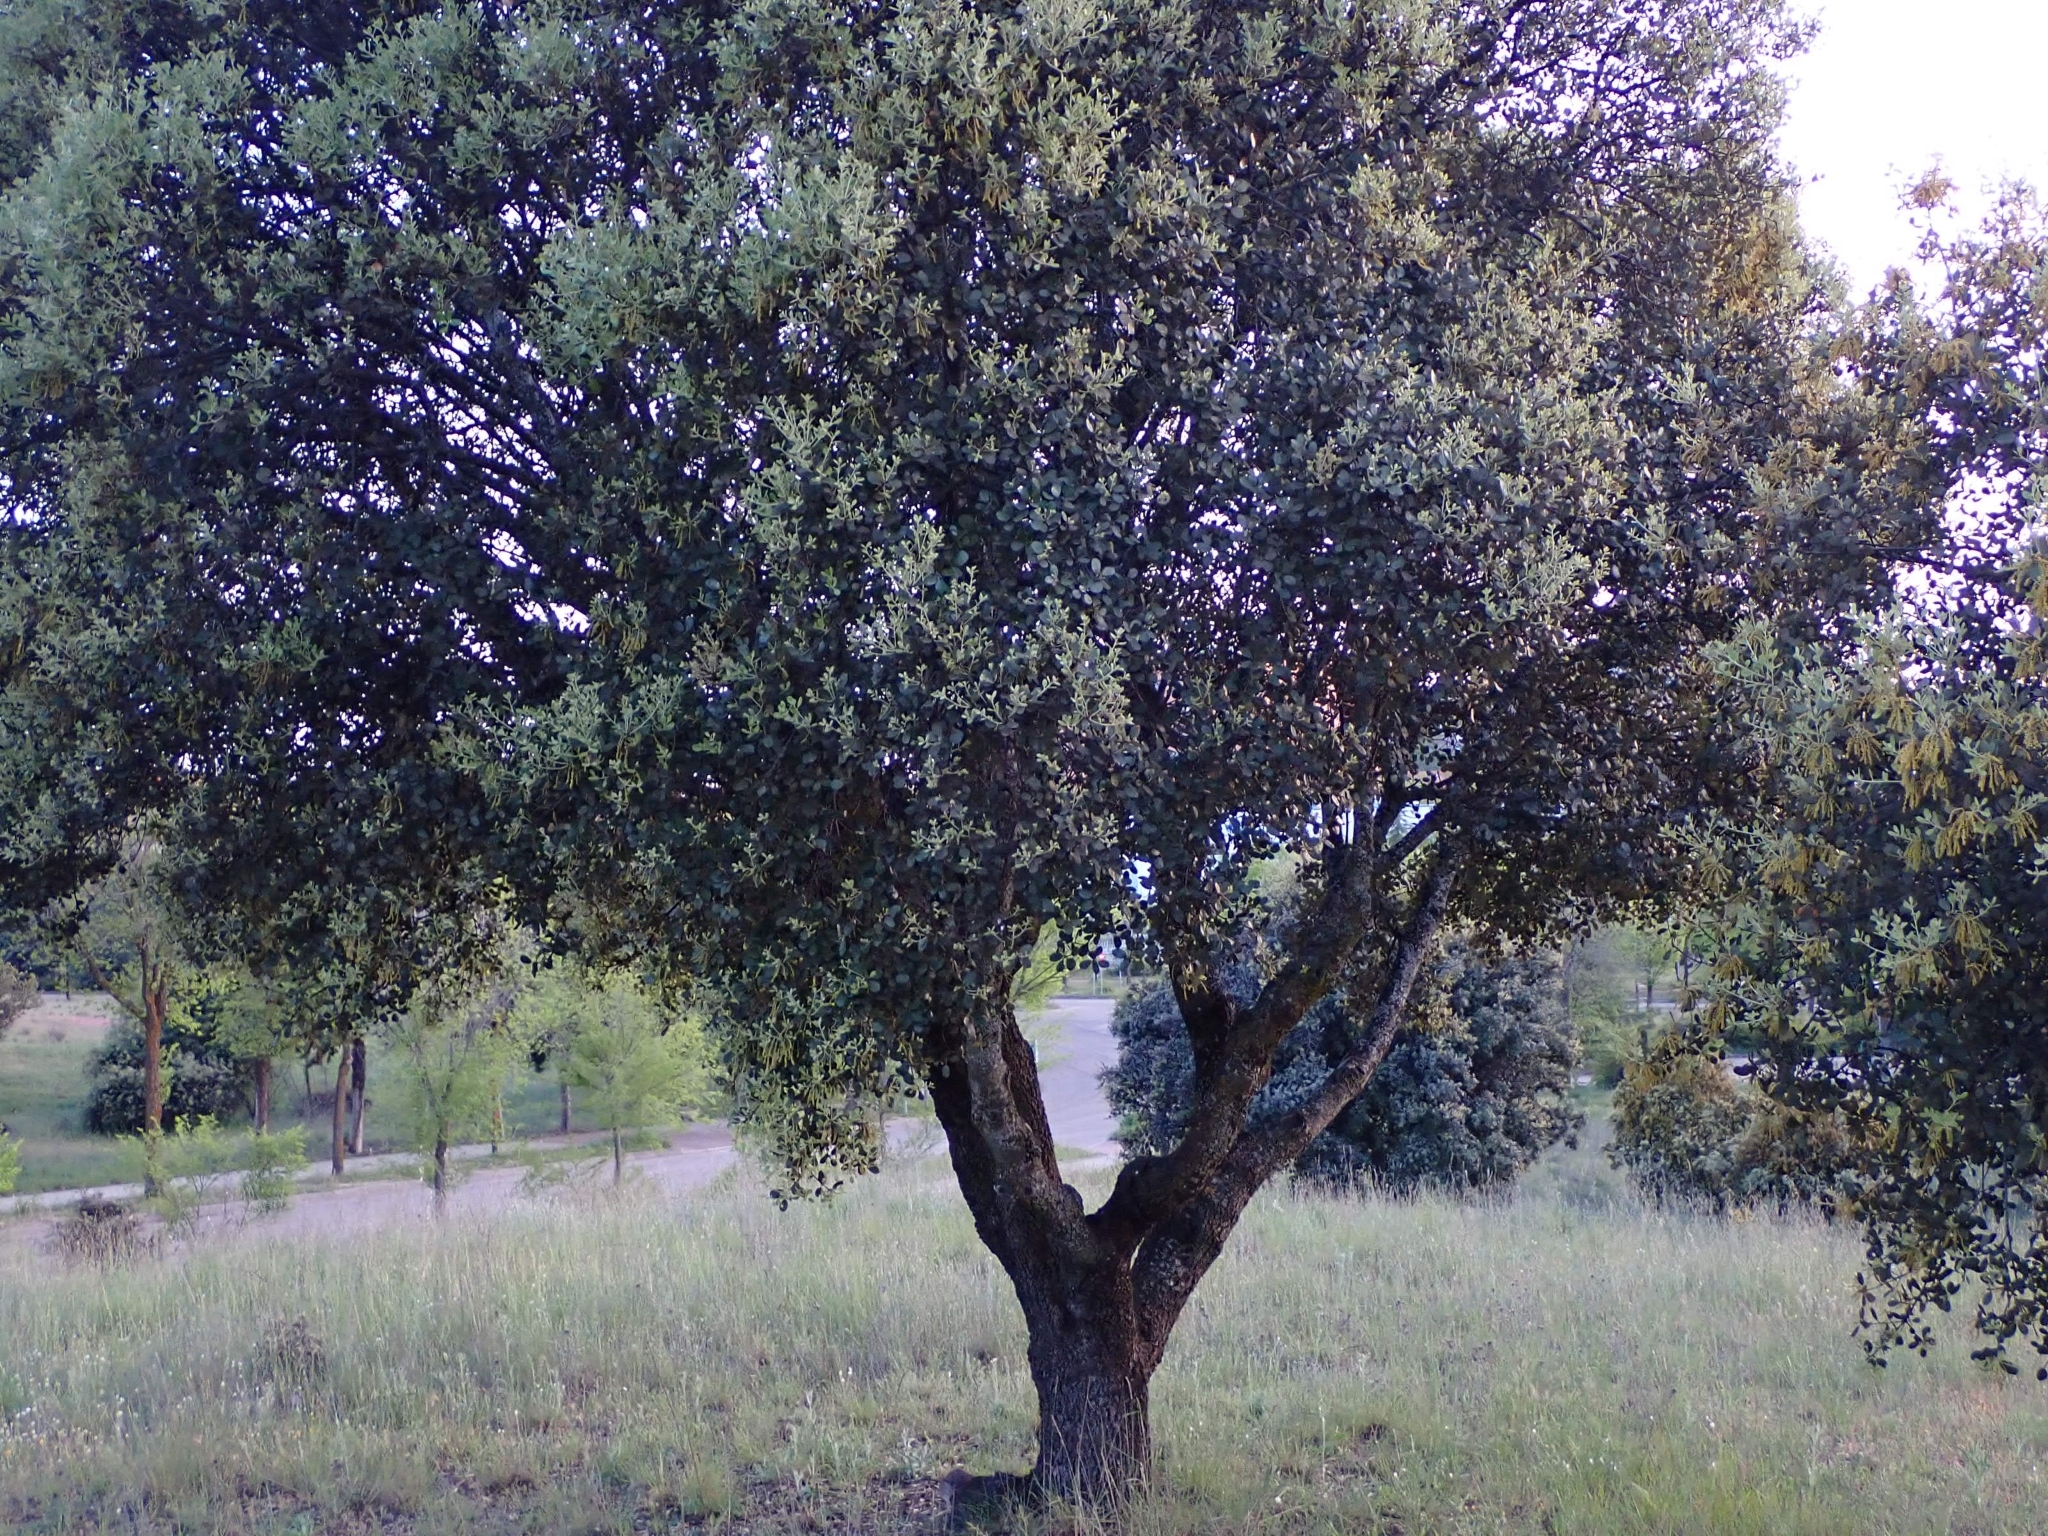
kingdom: Plantae
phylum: Tracheophyta
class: Magnoliopsida
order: Fagales
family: Fagaceae
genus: Quercus
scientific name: Quercus rotundifolia
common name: Holm oak
